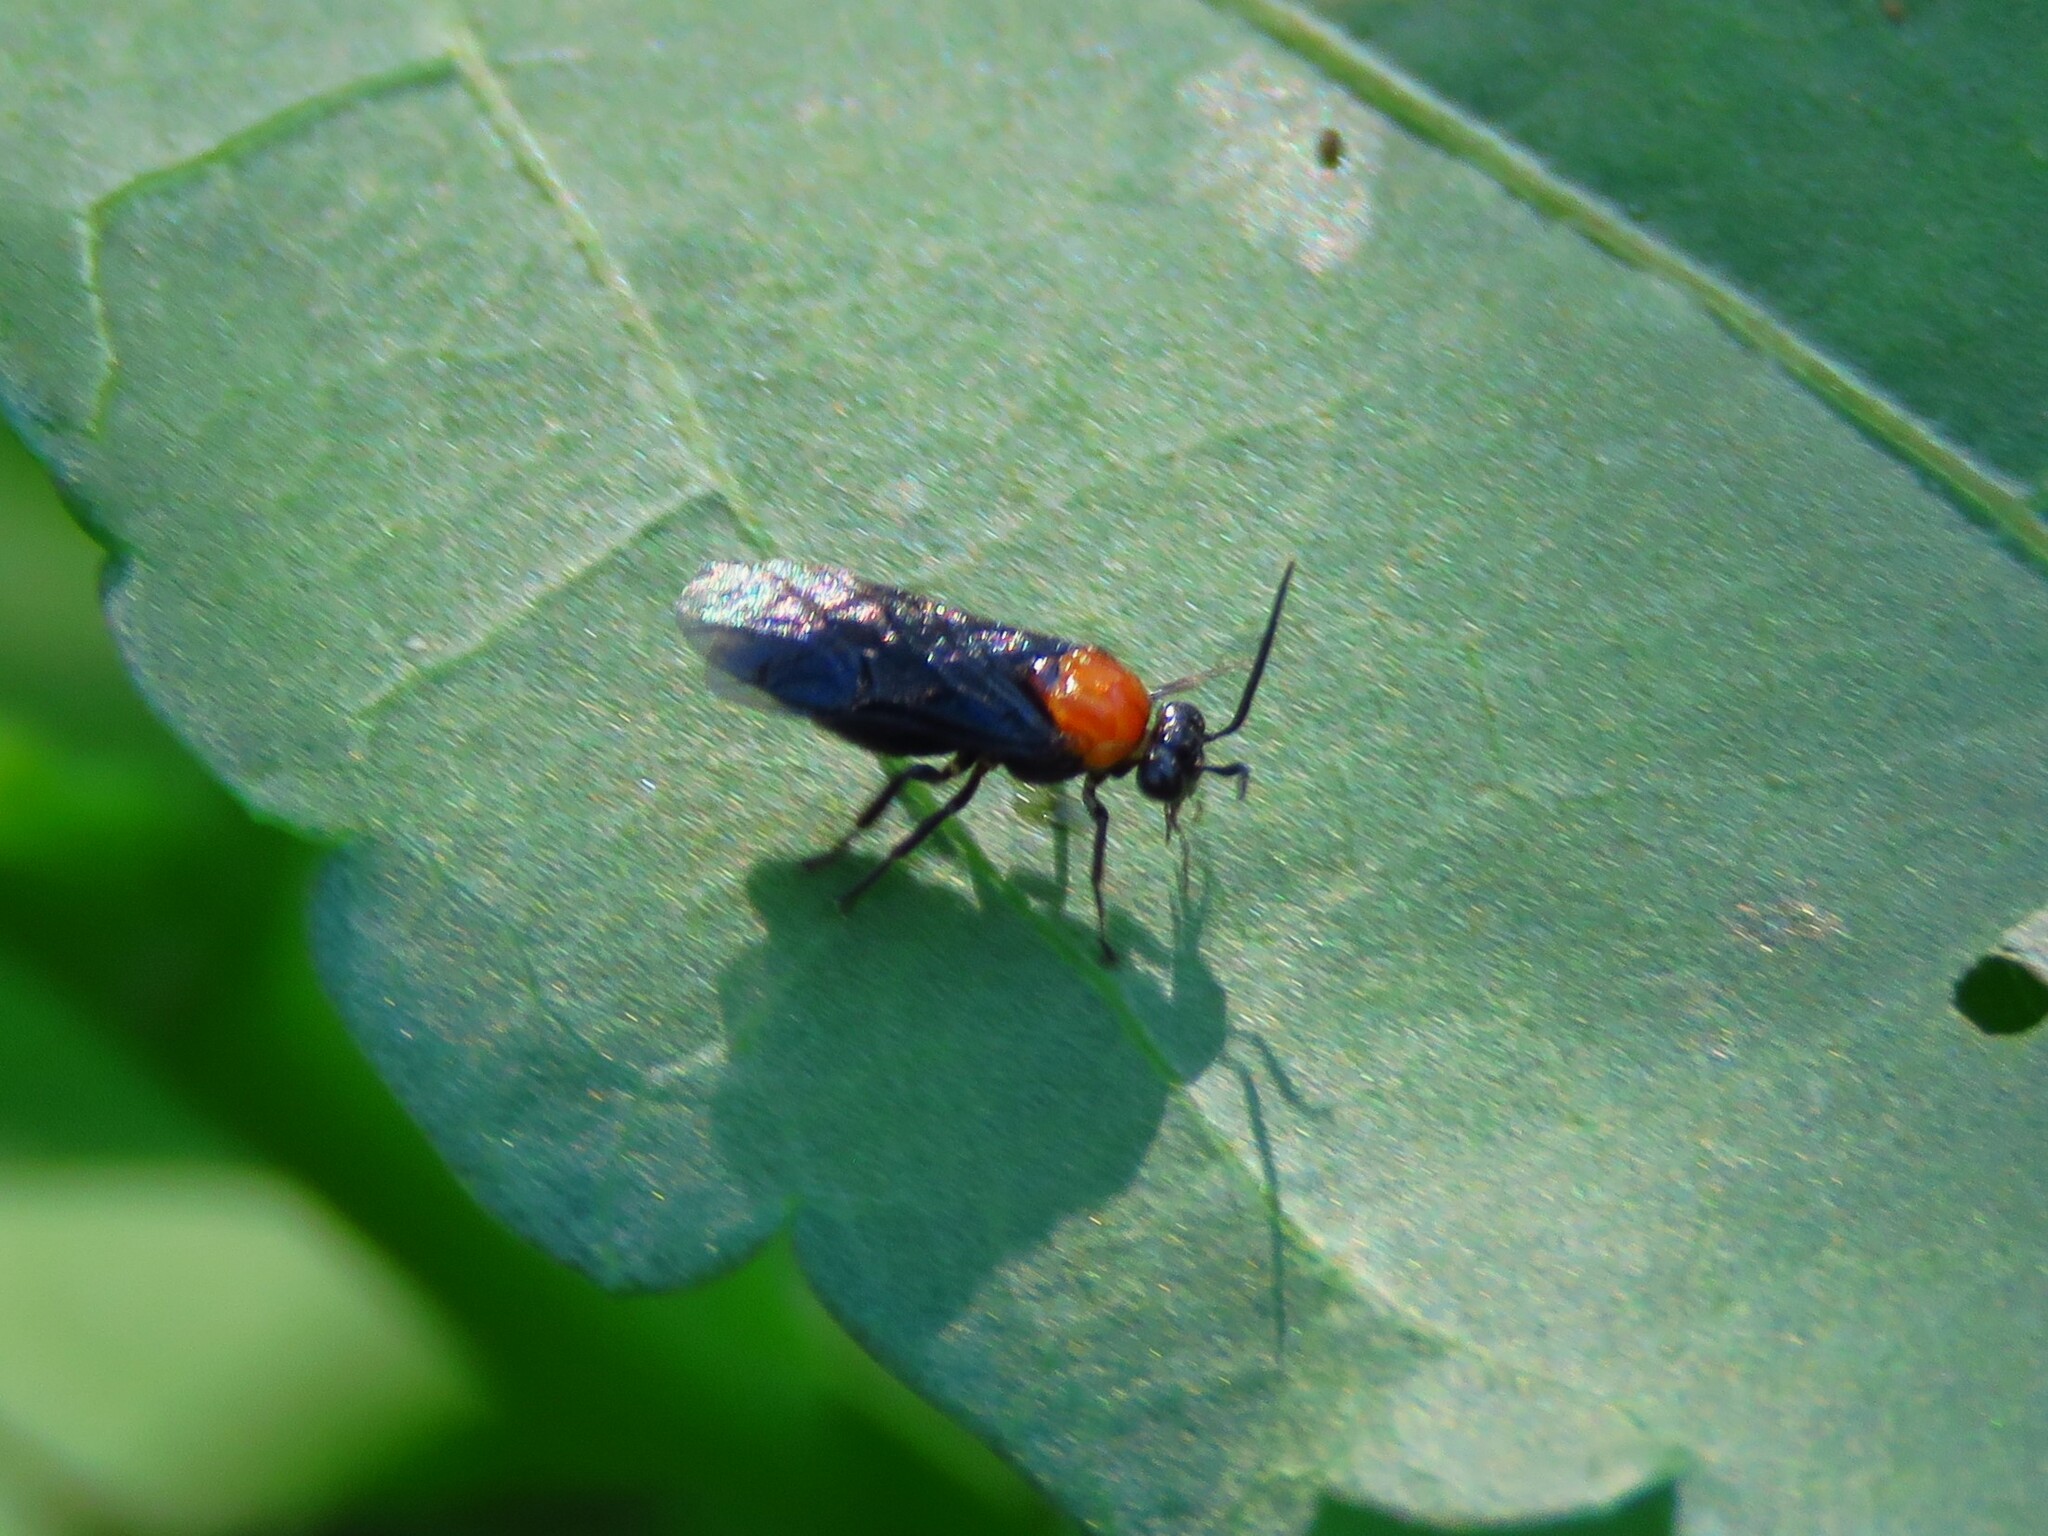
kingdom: Animalia
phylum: Arthropoda
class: Insecta
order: Hymenoptera
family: Argidae
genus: Atomacera
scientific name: Atomacera
